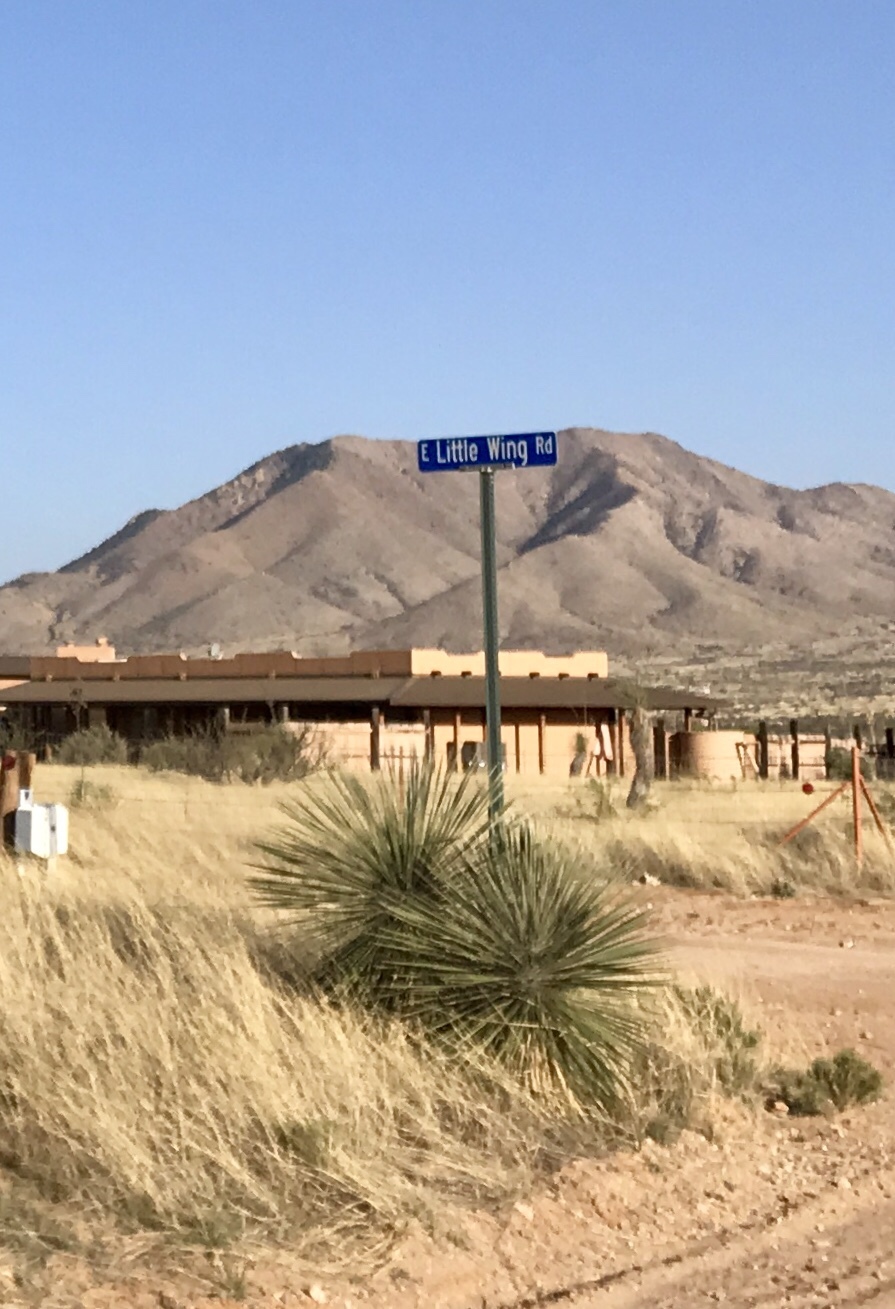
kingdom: Plantae
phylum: Tracheophyta
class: Liliopsida
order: Asparagales
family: Asparagaceae
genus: Yucca
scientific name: Yucca elata
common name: Palmella
